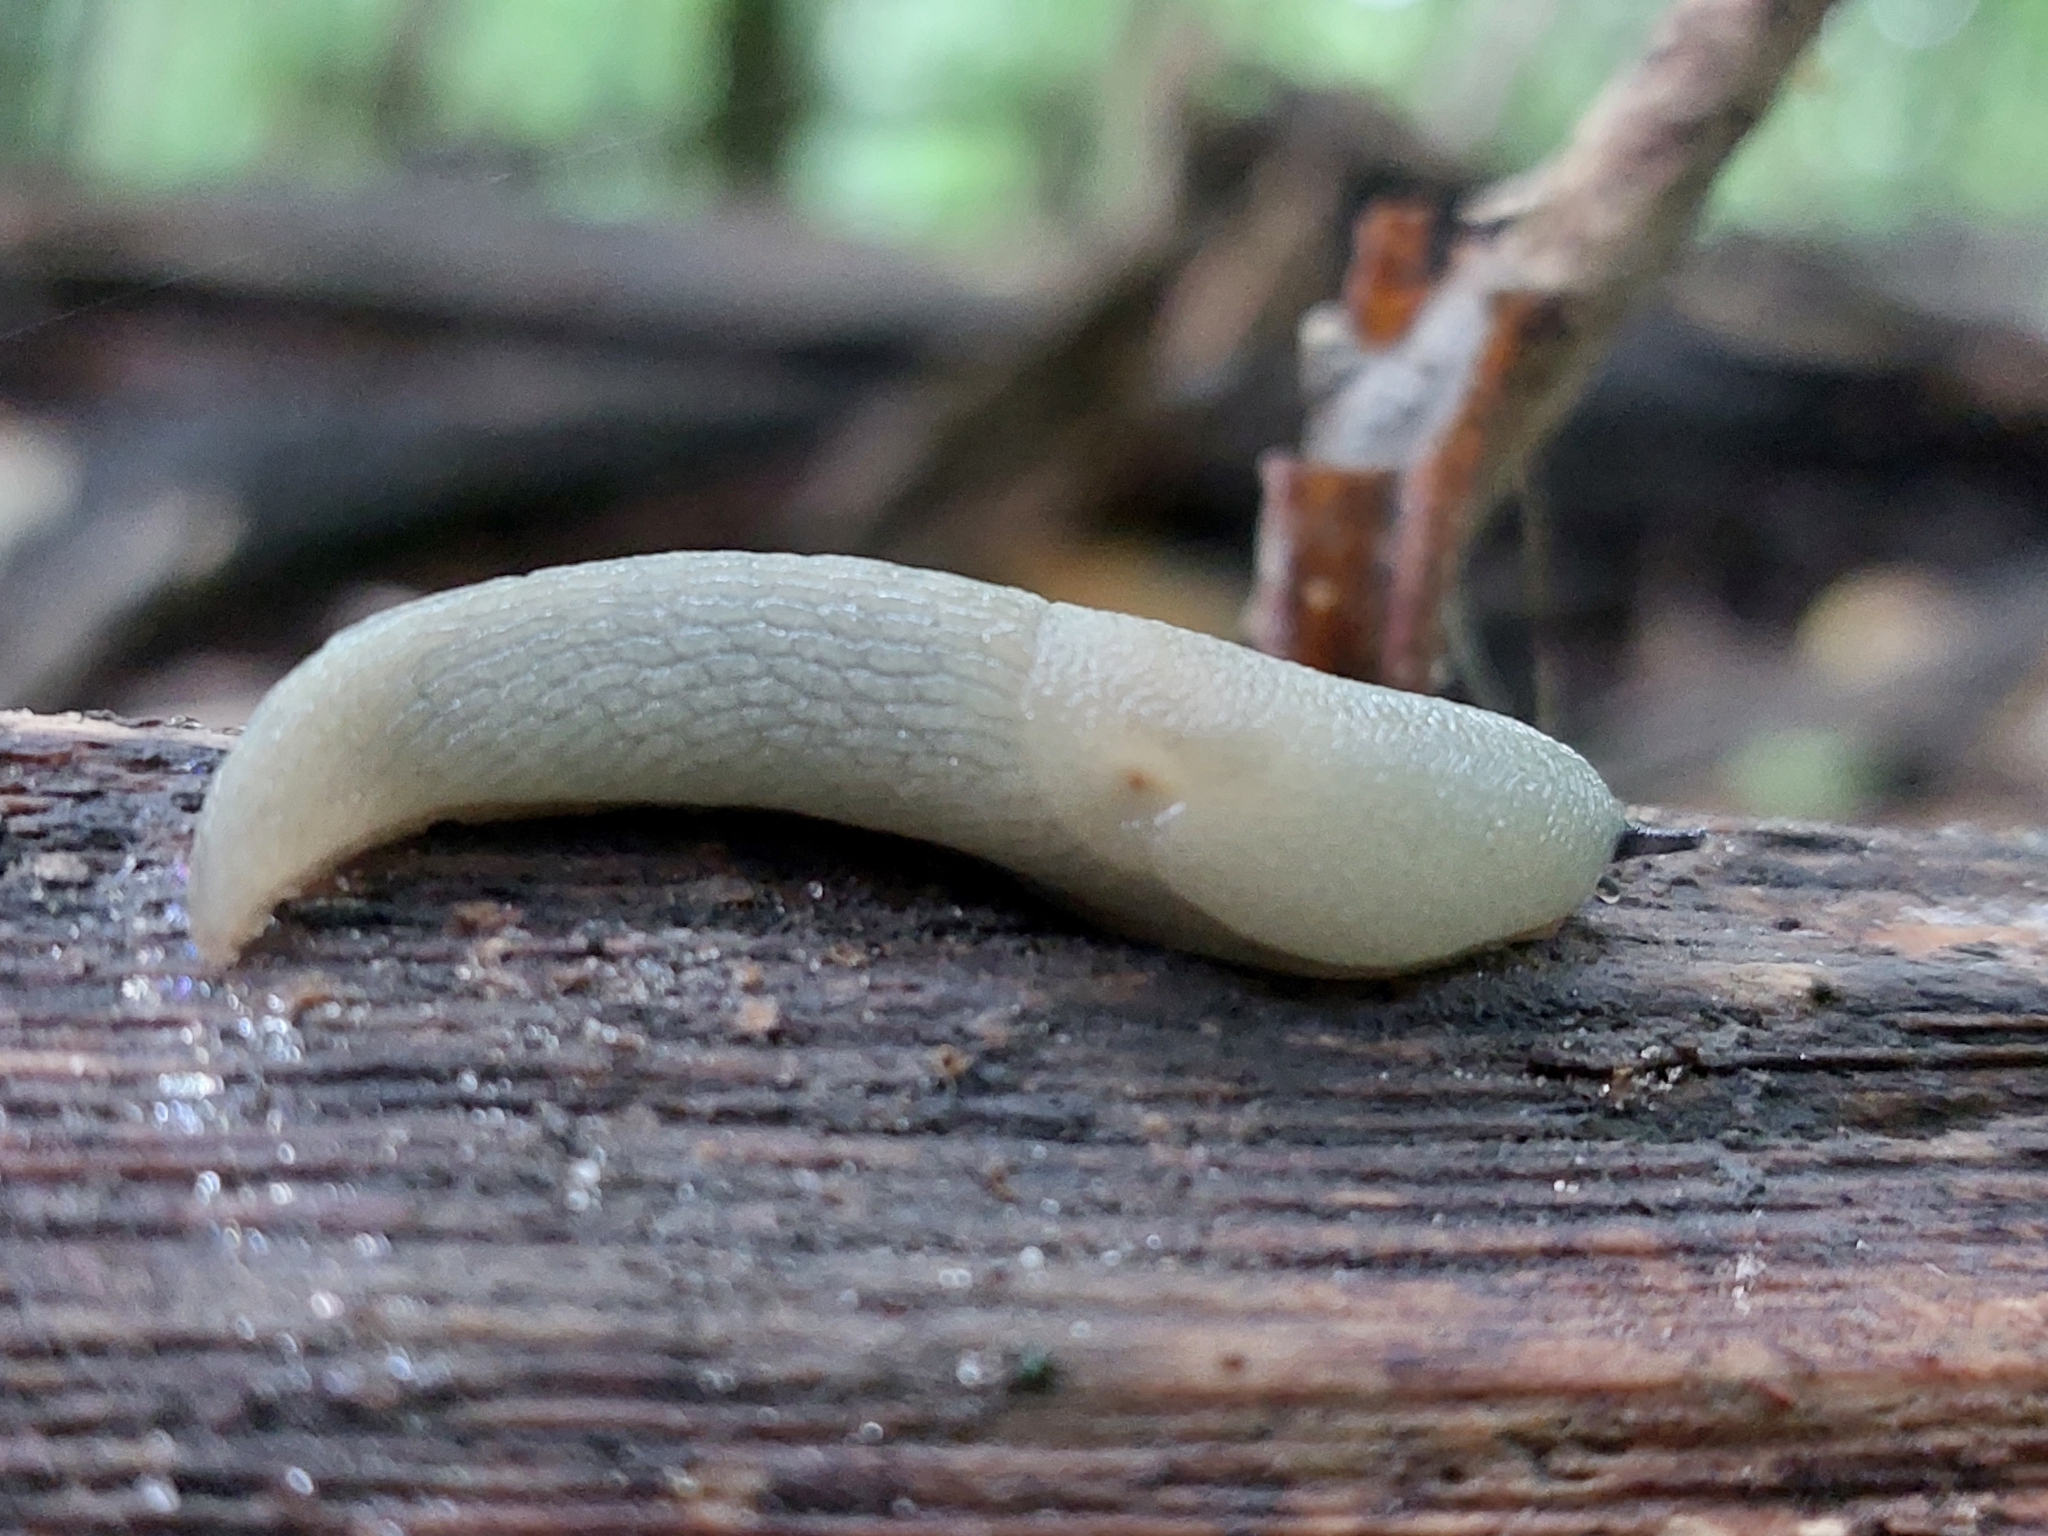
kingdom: Animalia
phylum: Mollusca
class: Gastropoda
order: Stylommatophora
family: Agriolimacidae
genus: Krynickillus
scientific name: Krynickillus melanocephalus
